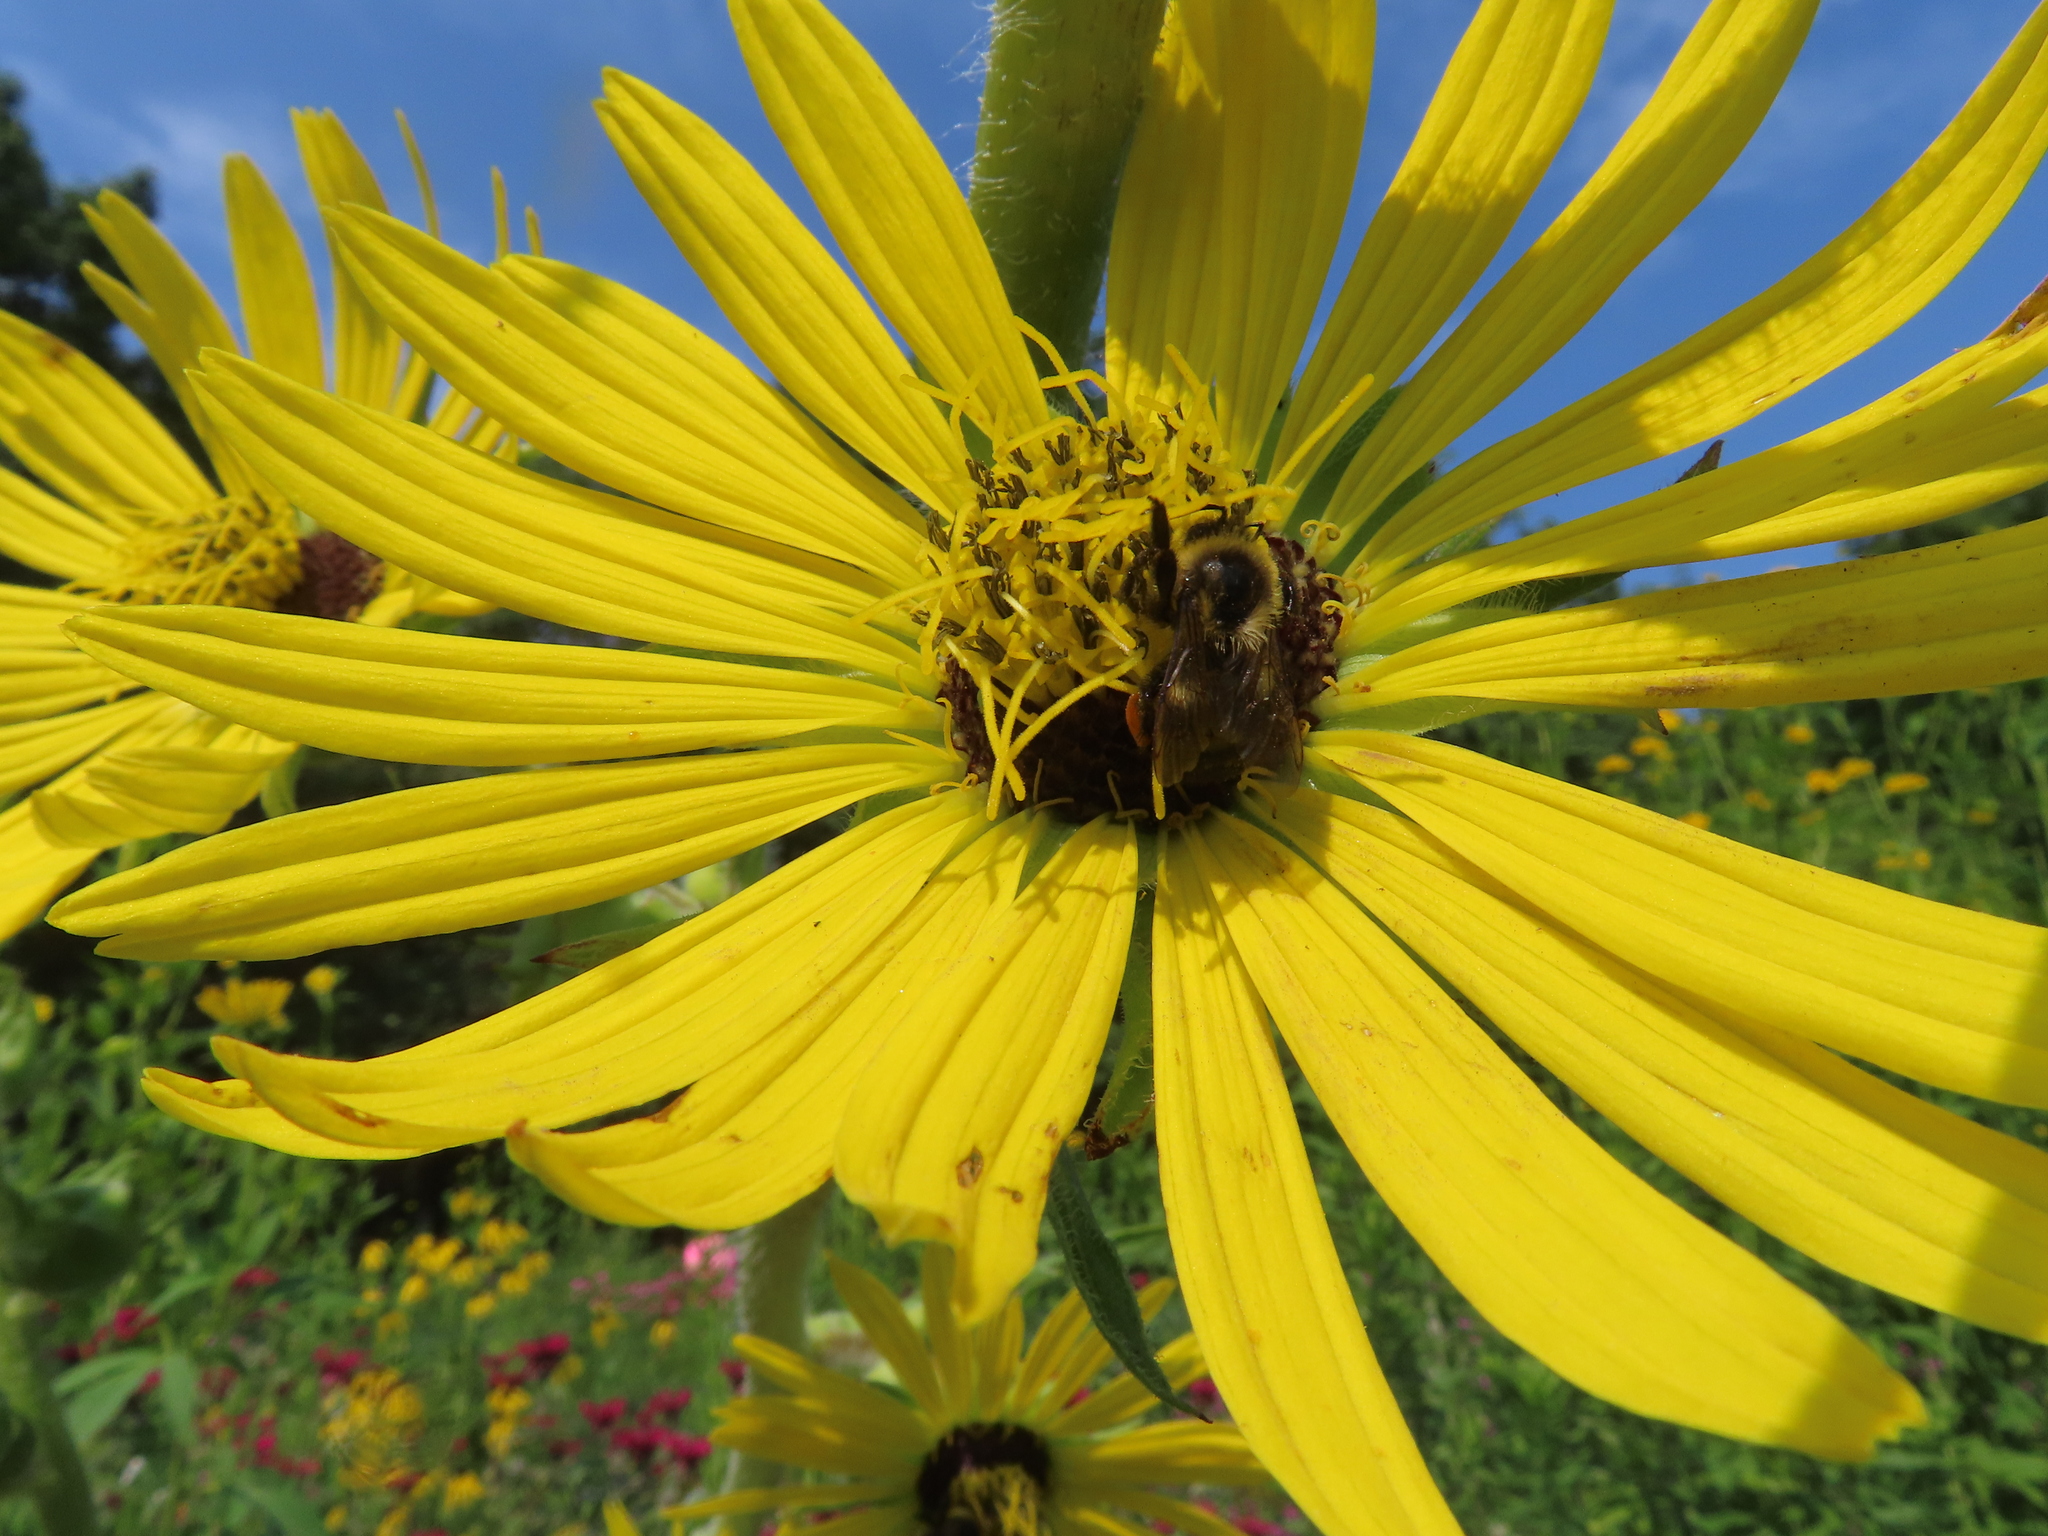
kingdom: Animalia
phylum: Arthropoda
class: Insecta
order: Hymenoptera
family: Apidae
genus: Bombus
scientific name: Bombus griseocollis
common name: Brown-belted bumble bee
